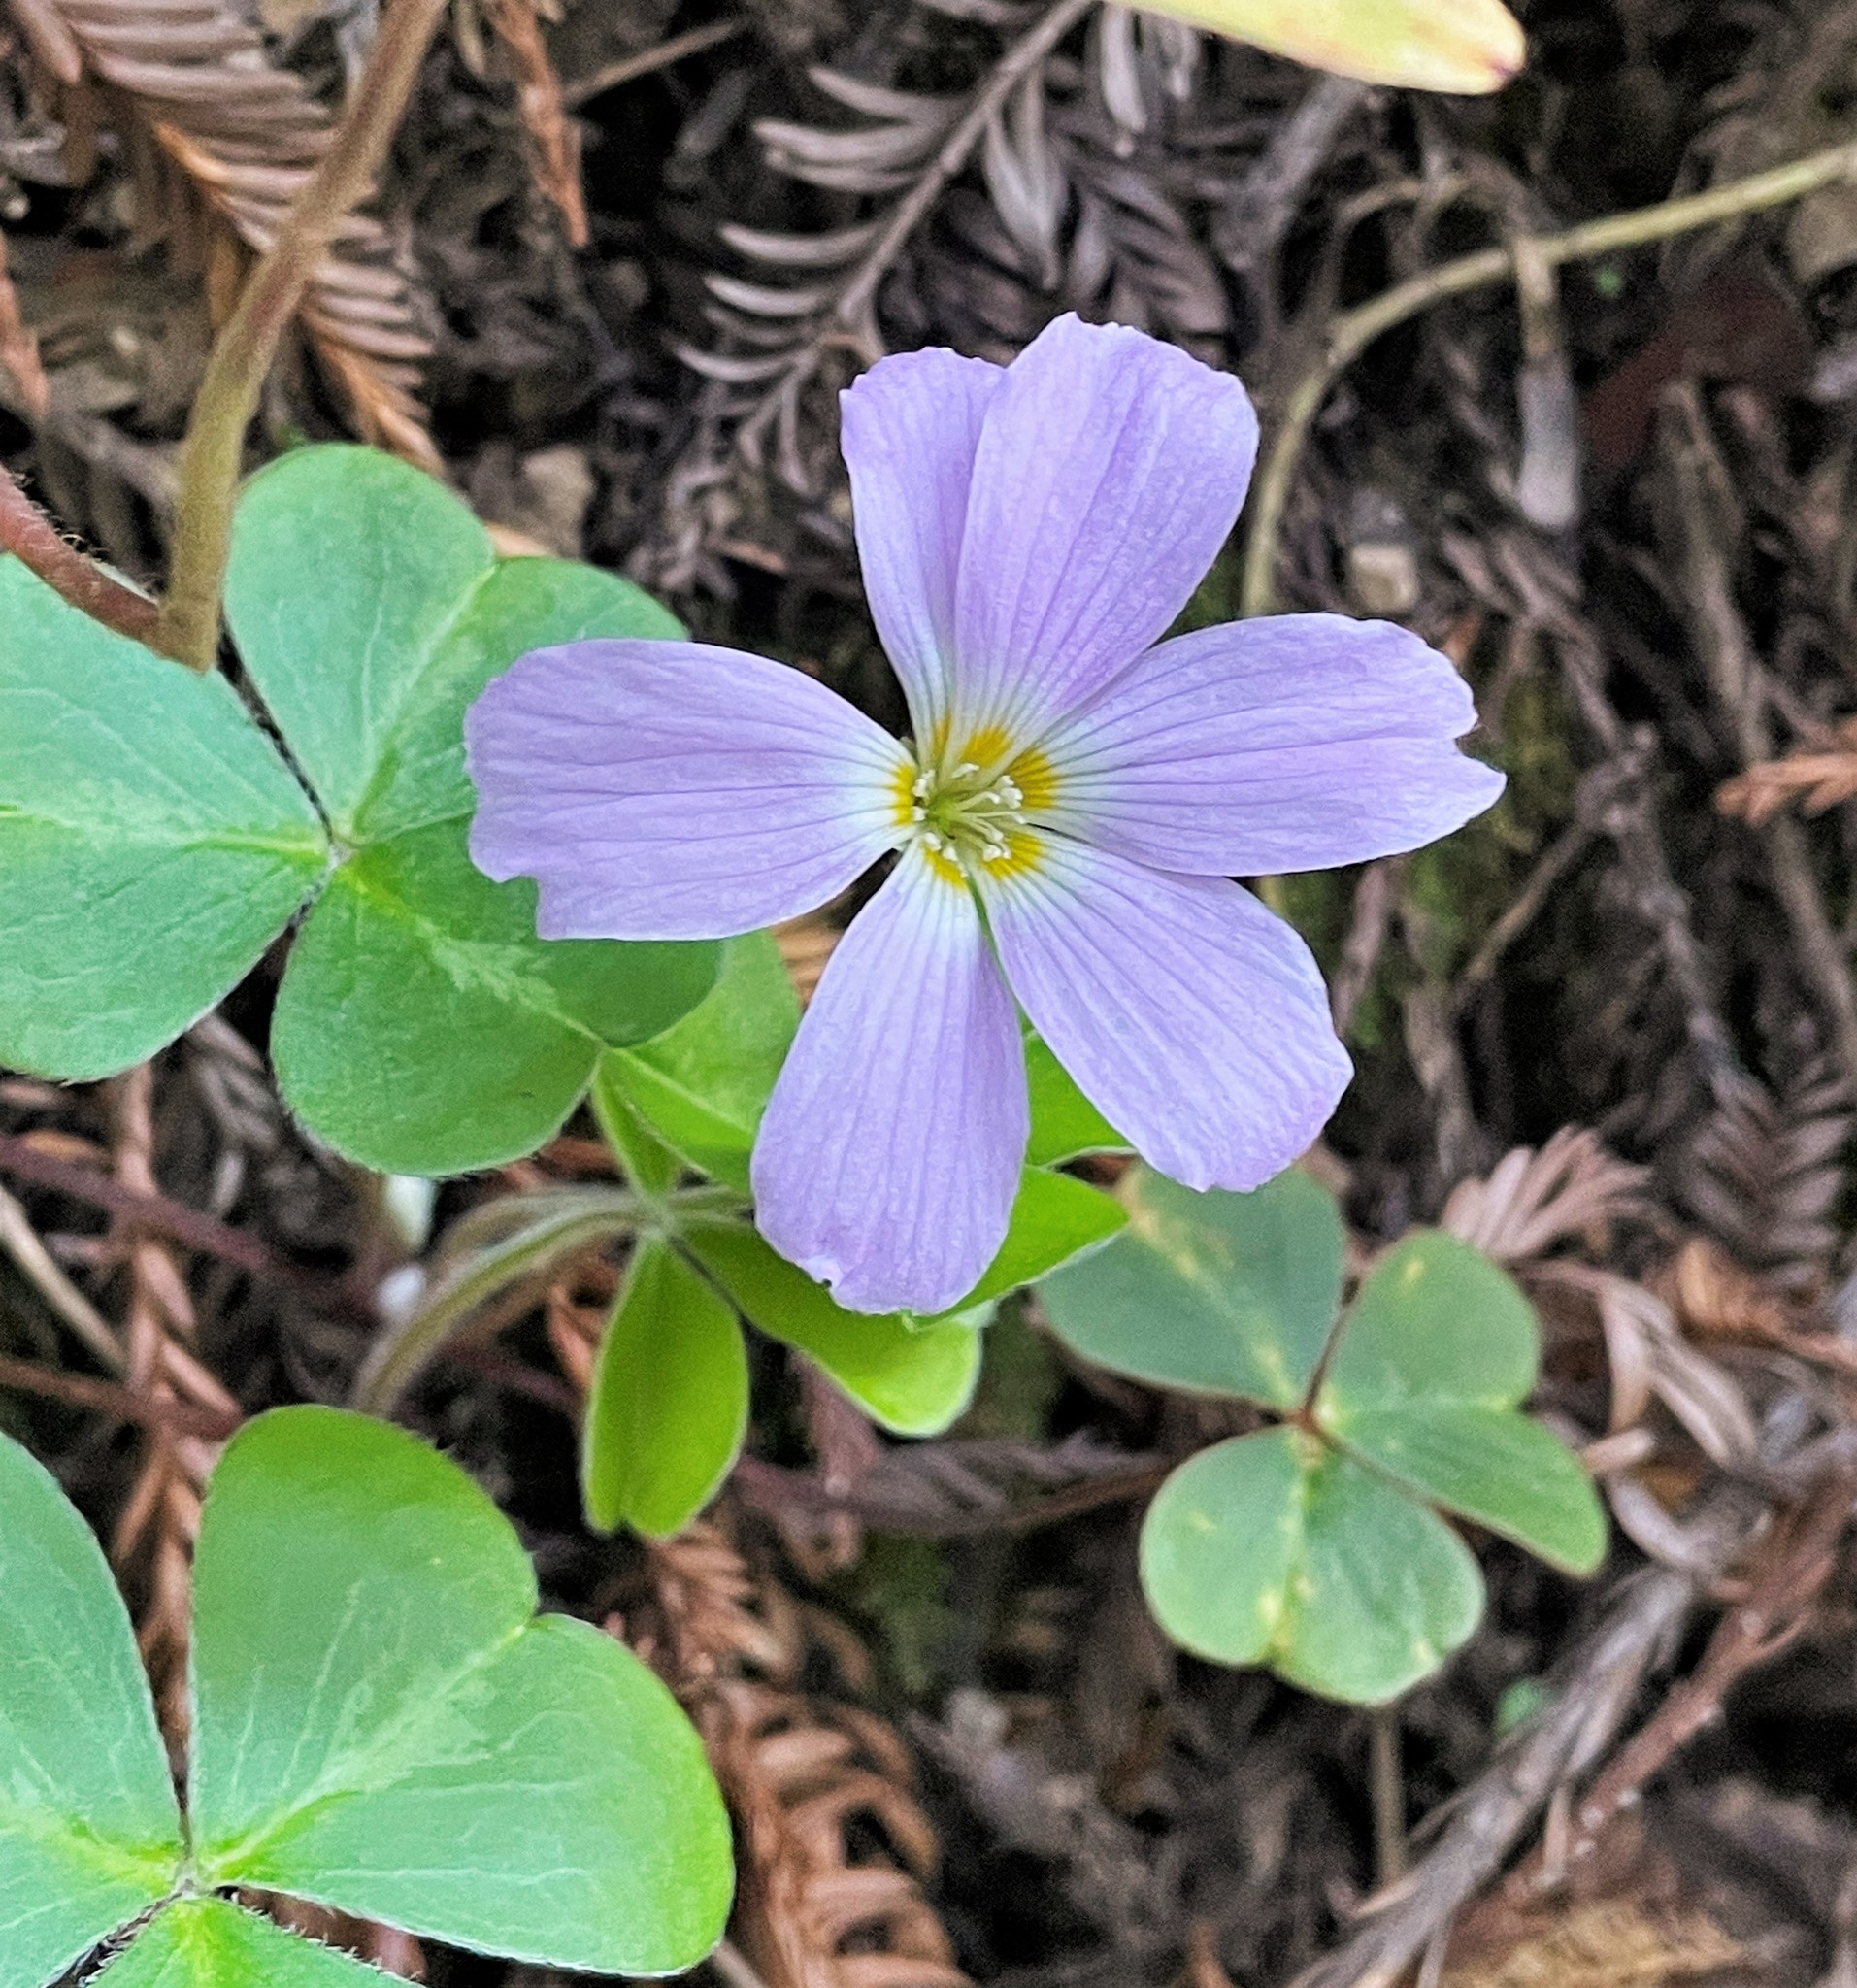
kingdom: Plantae
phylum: Tracheophyta
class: Magnoliopsida
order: Oxalidales
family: Oxalidaceae
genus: Oxalis
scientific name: Oxalis oregana
